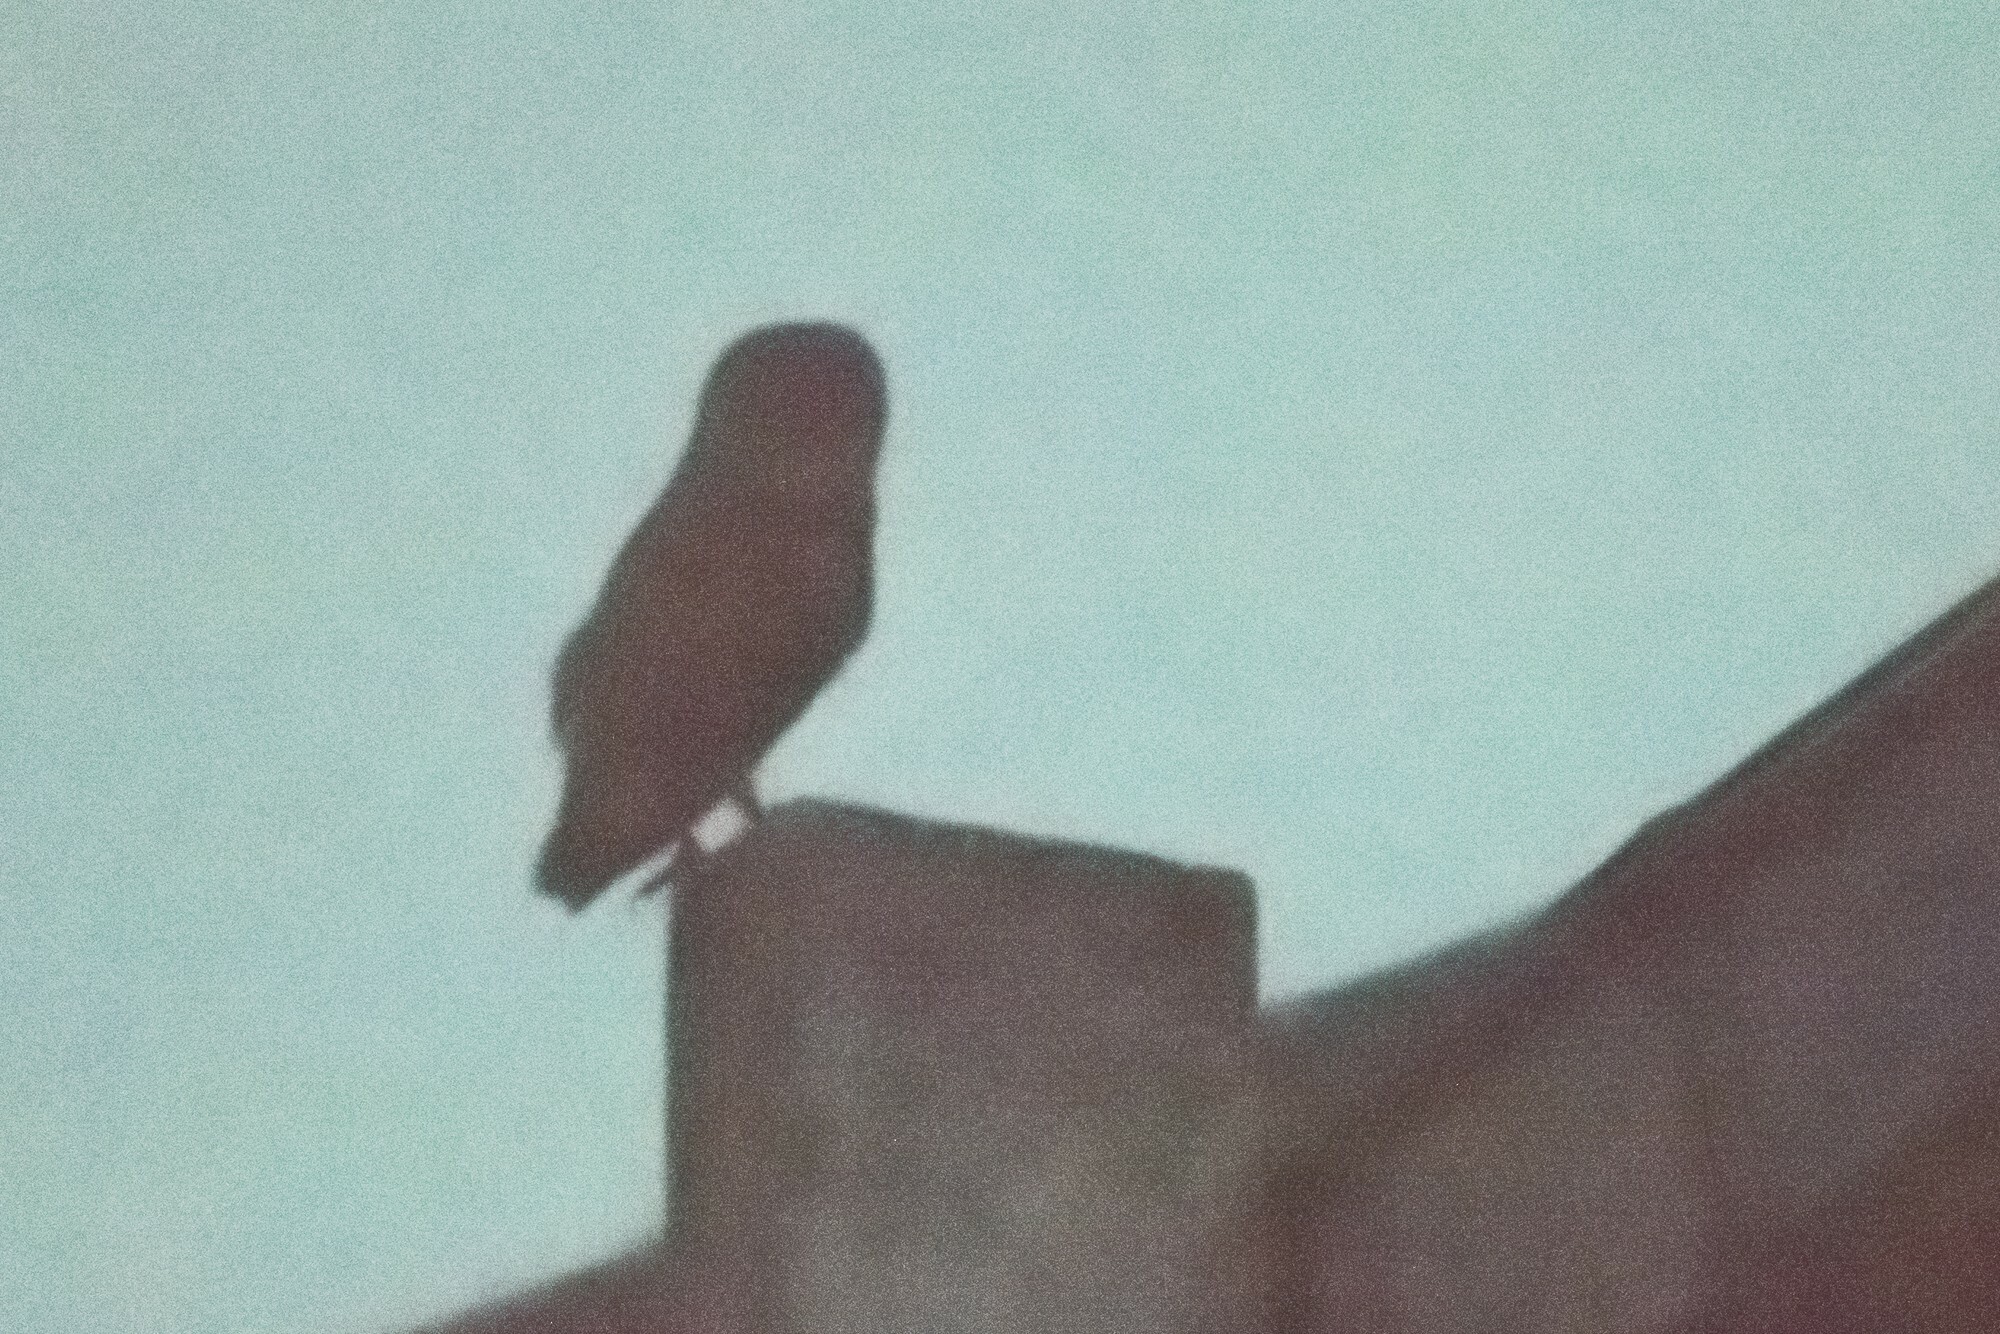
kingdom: Animalia
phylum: Chordata
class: Aves
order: Strigiformes
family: Tytonidae
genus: Tyto
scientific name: Tyto alba
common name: Barn owl
